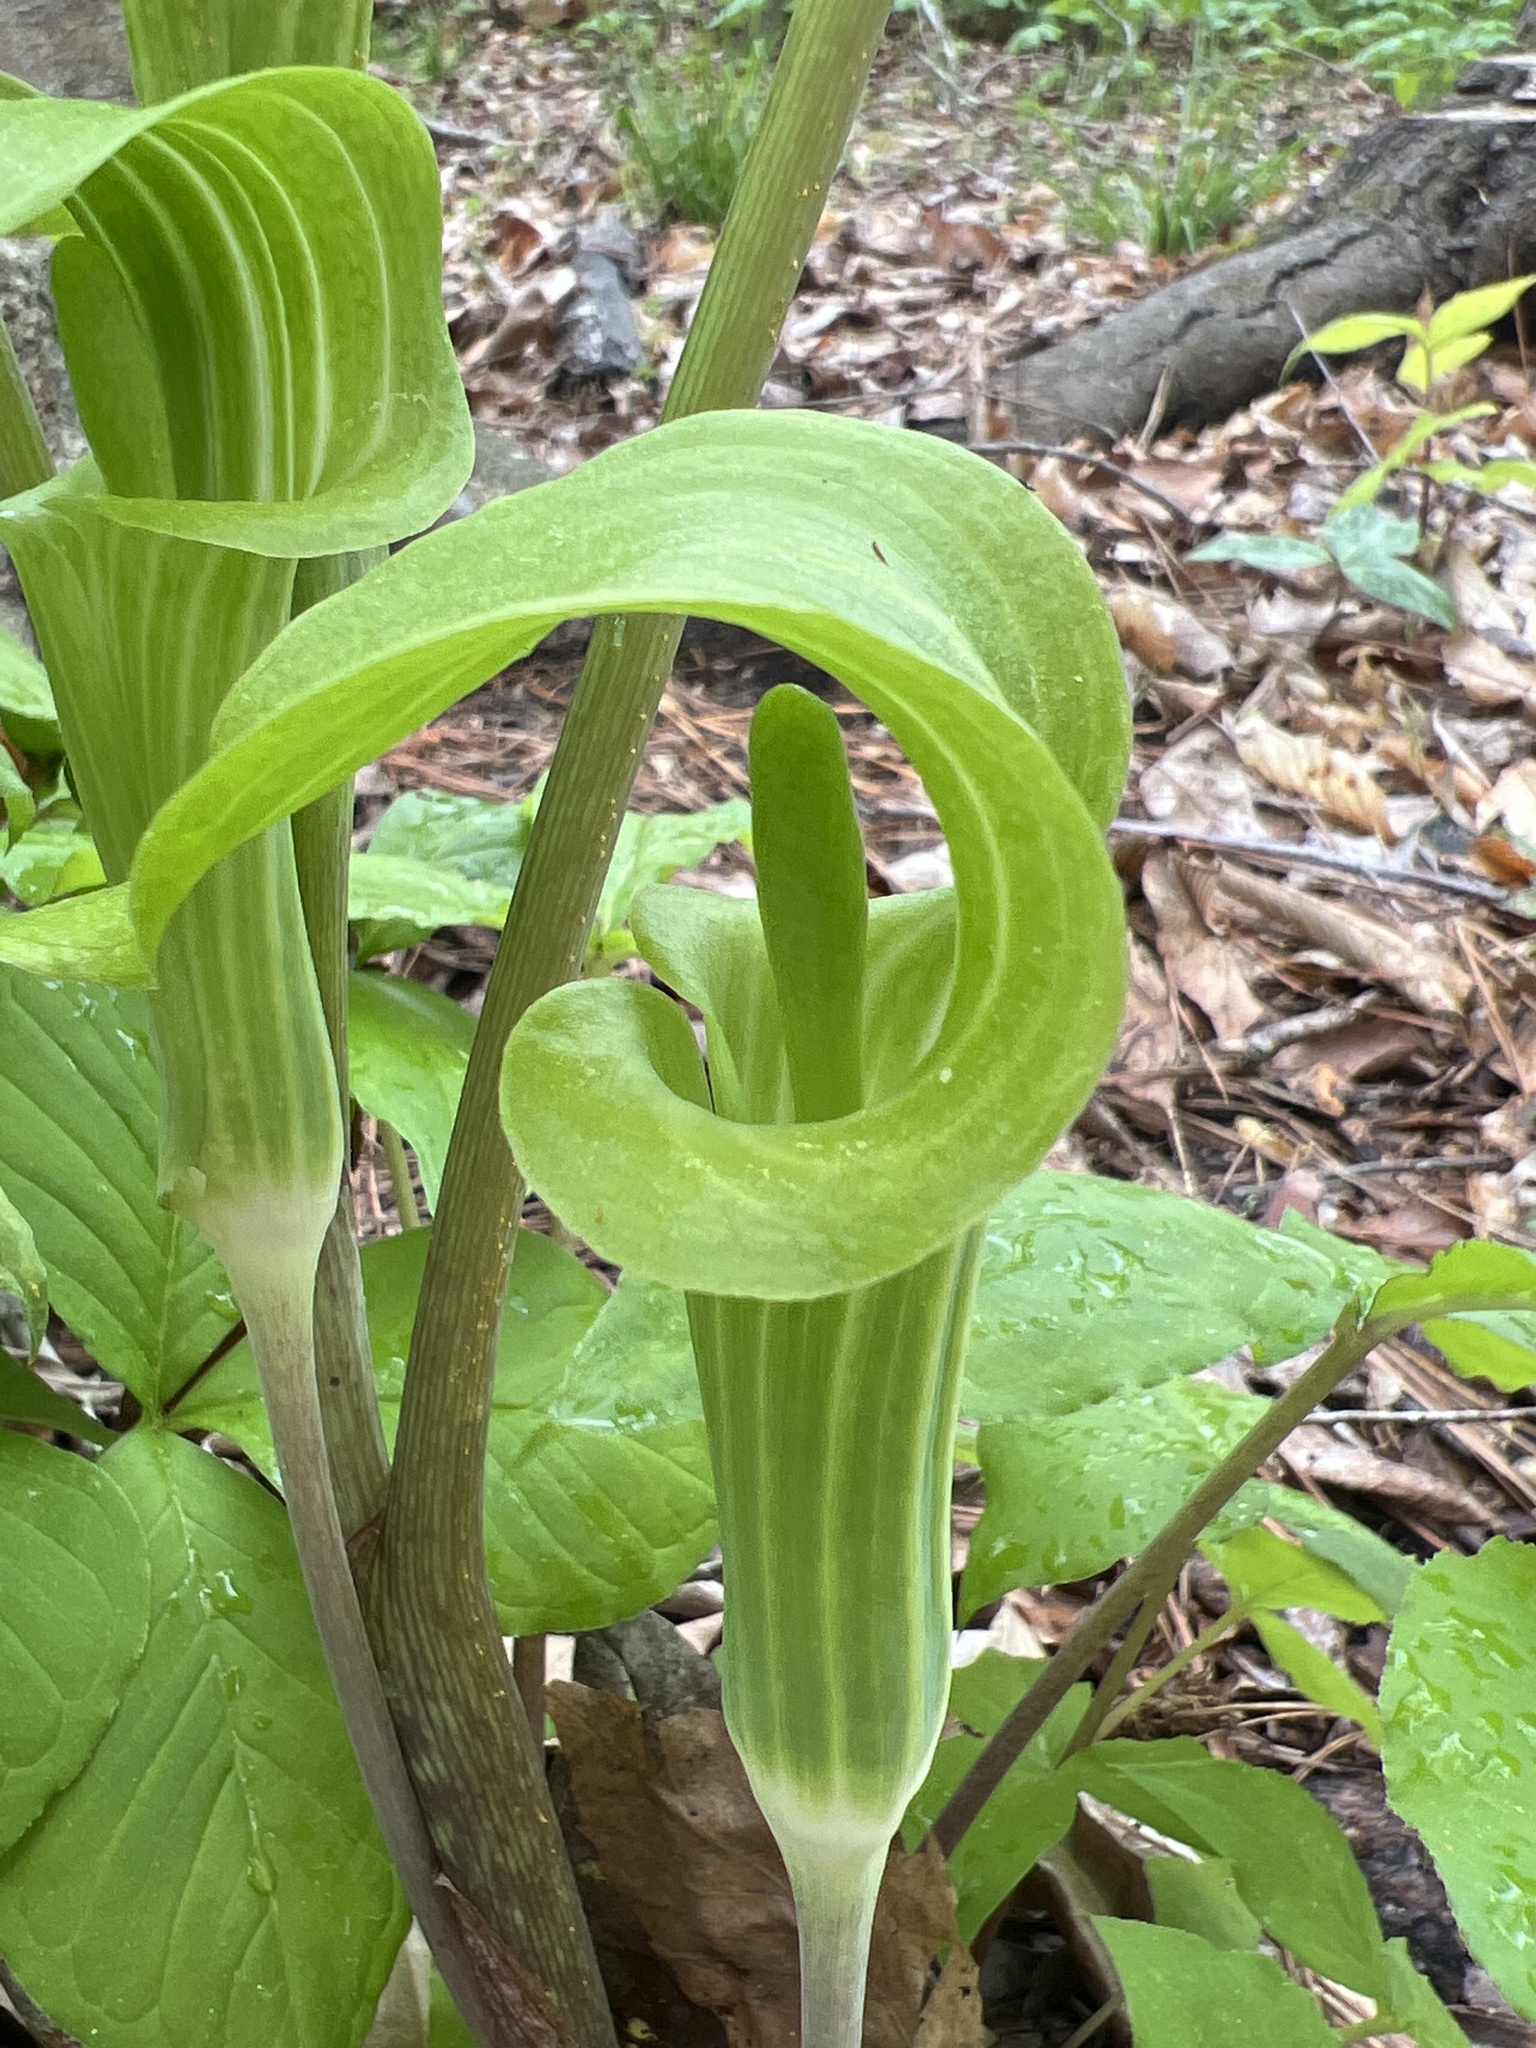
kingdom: Plantae
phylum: Tracheophyta
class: Liliopsida
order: Alismatales
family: Araceae
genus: Arisaema
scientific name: Arisaema triphyllum
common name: Jack-in-the-pulpit
